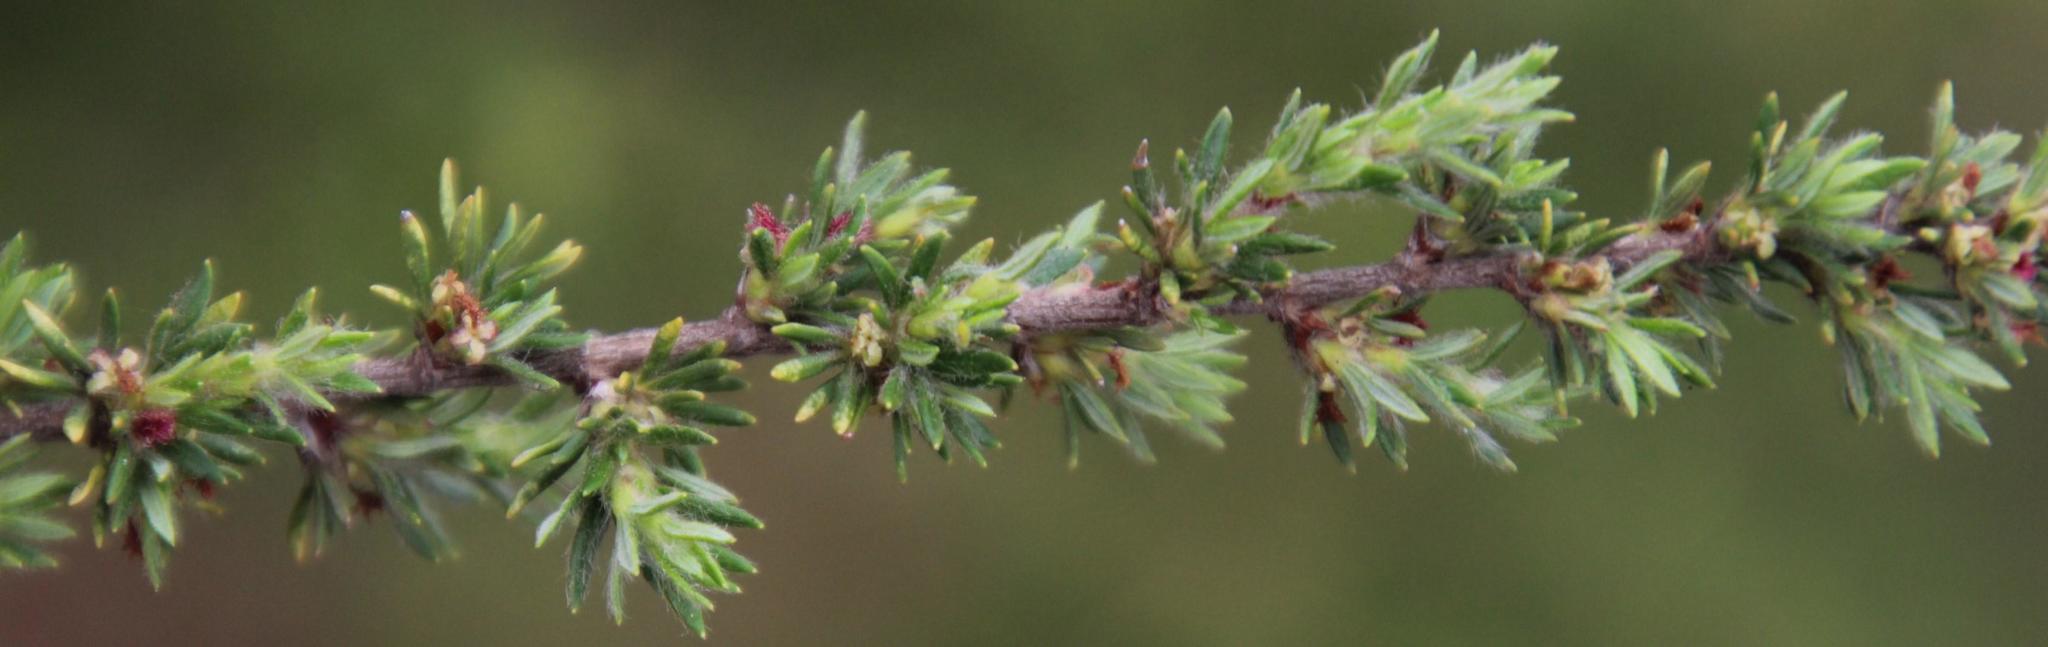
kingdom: Plantae
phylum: Tracheophyta
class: Magnoliopsida
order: Rosales
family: Rosaceae
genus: Cliffortia
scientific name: Cliffortia nitidula
